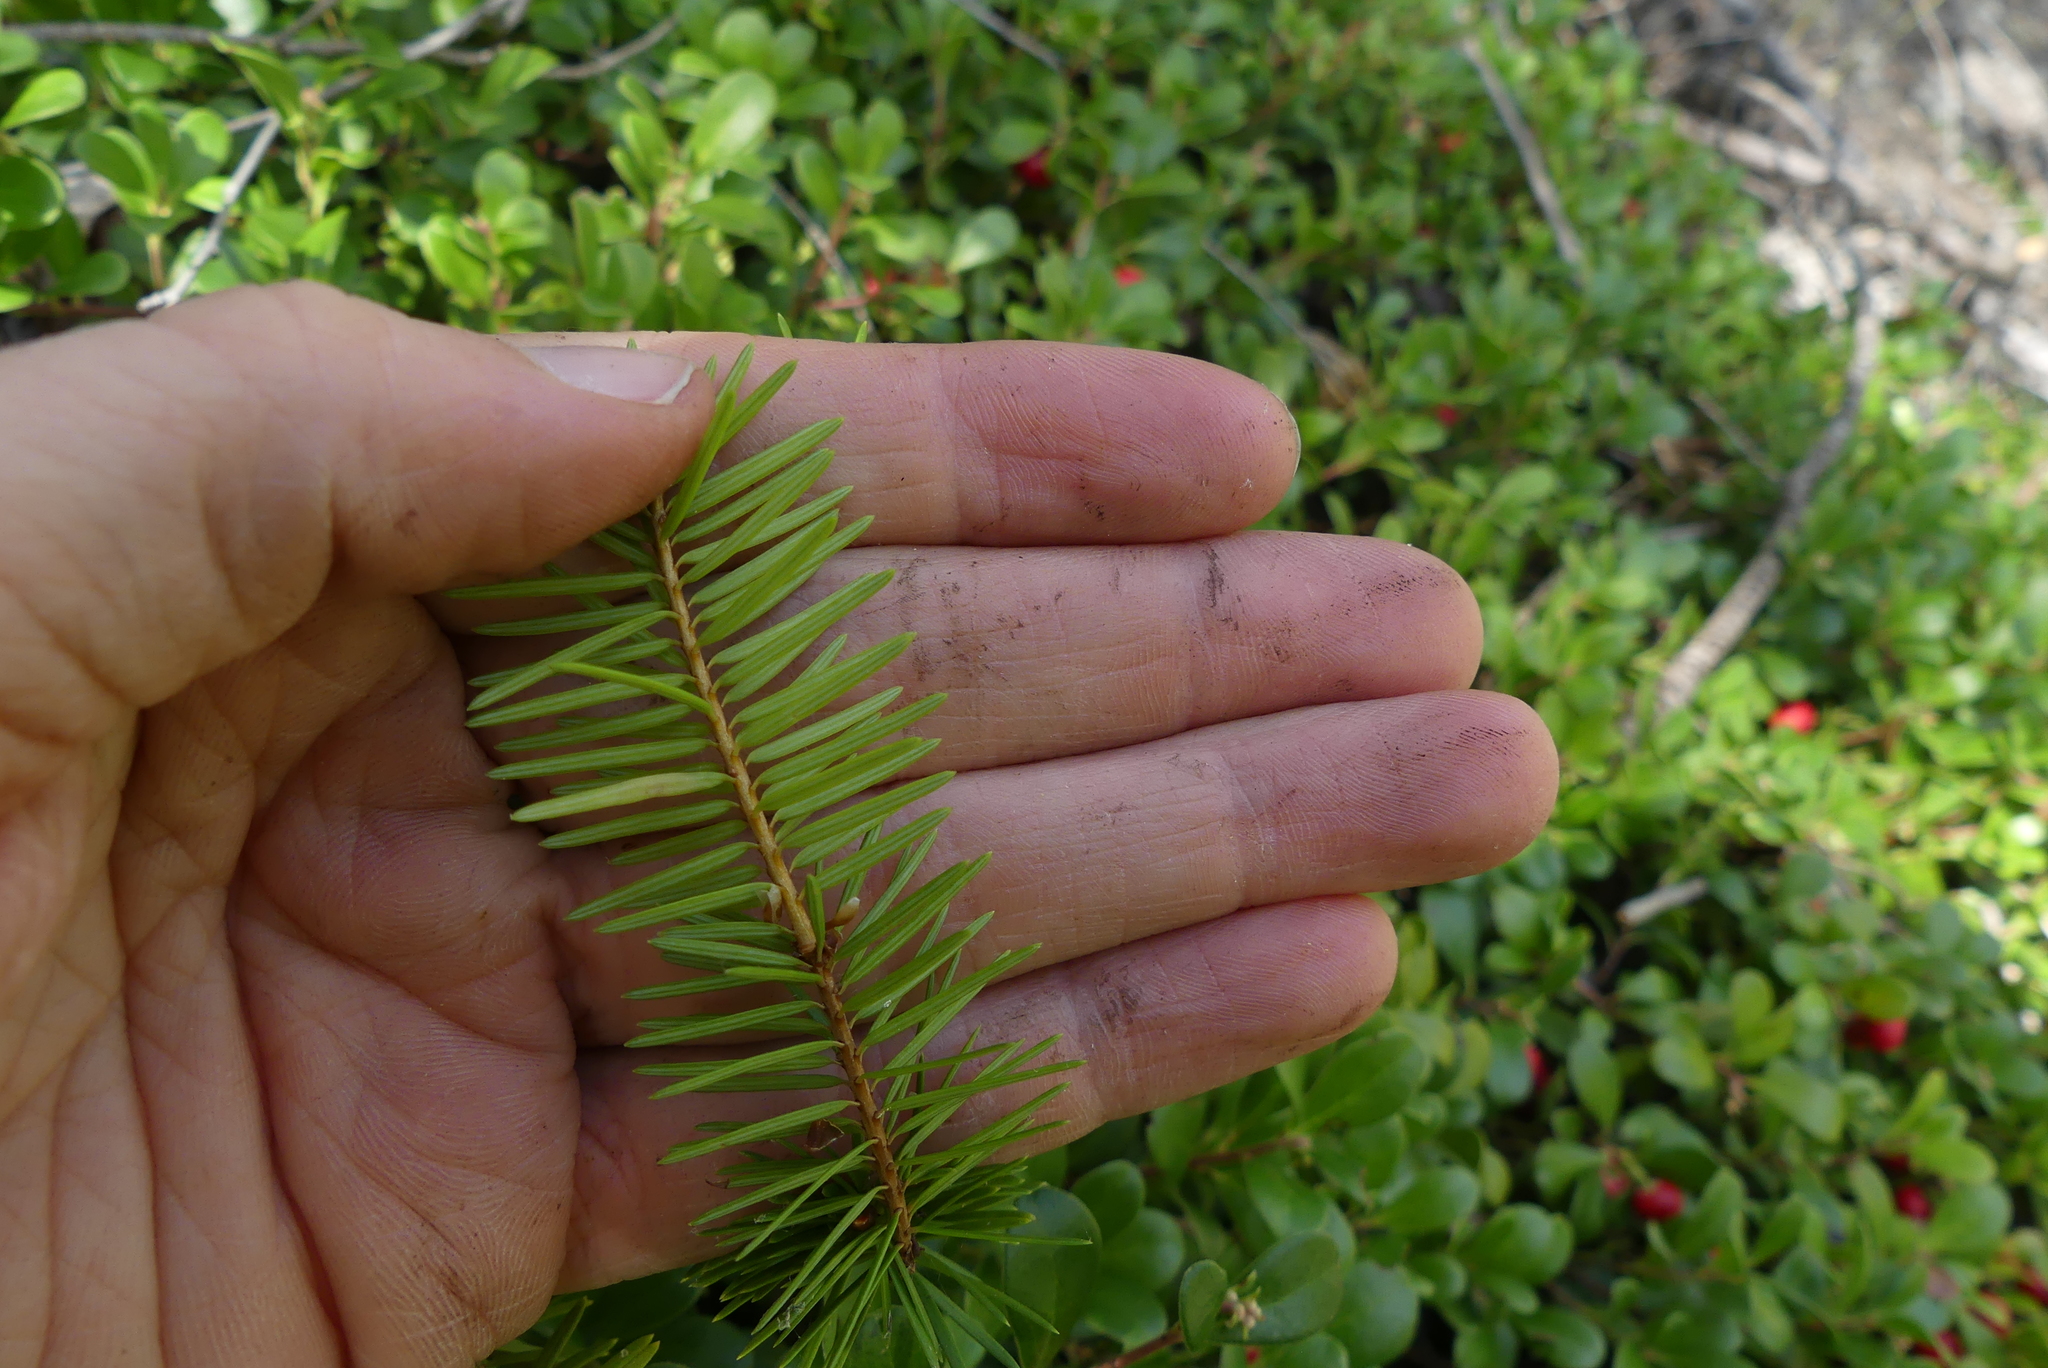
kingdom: Plantae
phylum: Tracheophyta
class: Pinopsida
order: Pinales
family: Pinaceae
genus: Pseudotsuga
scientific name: Pseudotsuga menziesii
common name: Douglas fir
